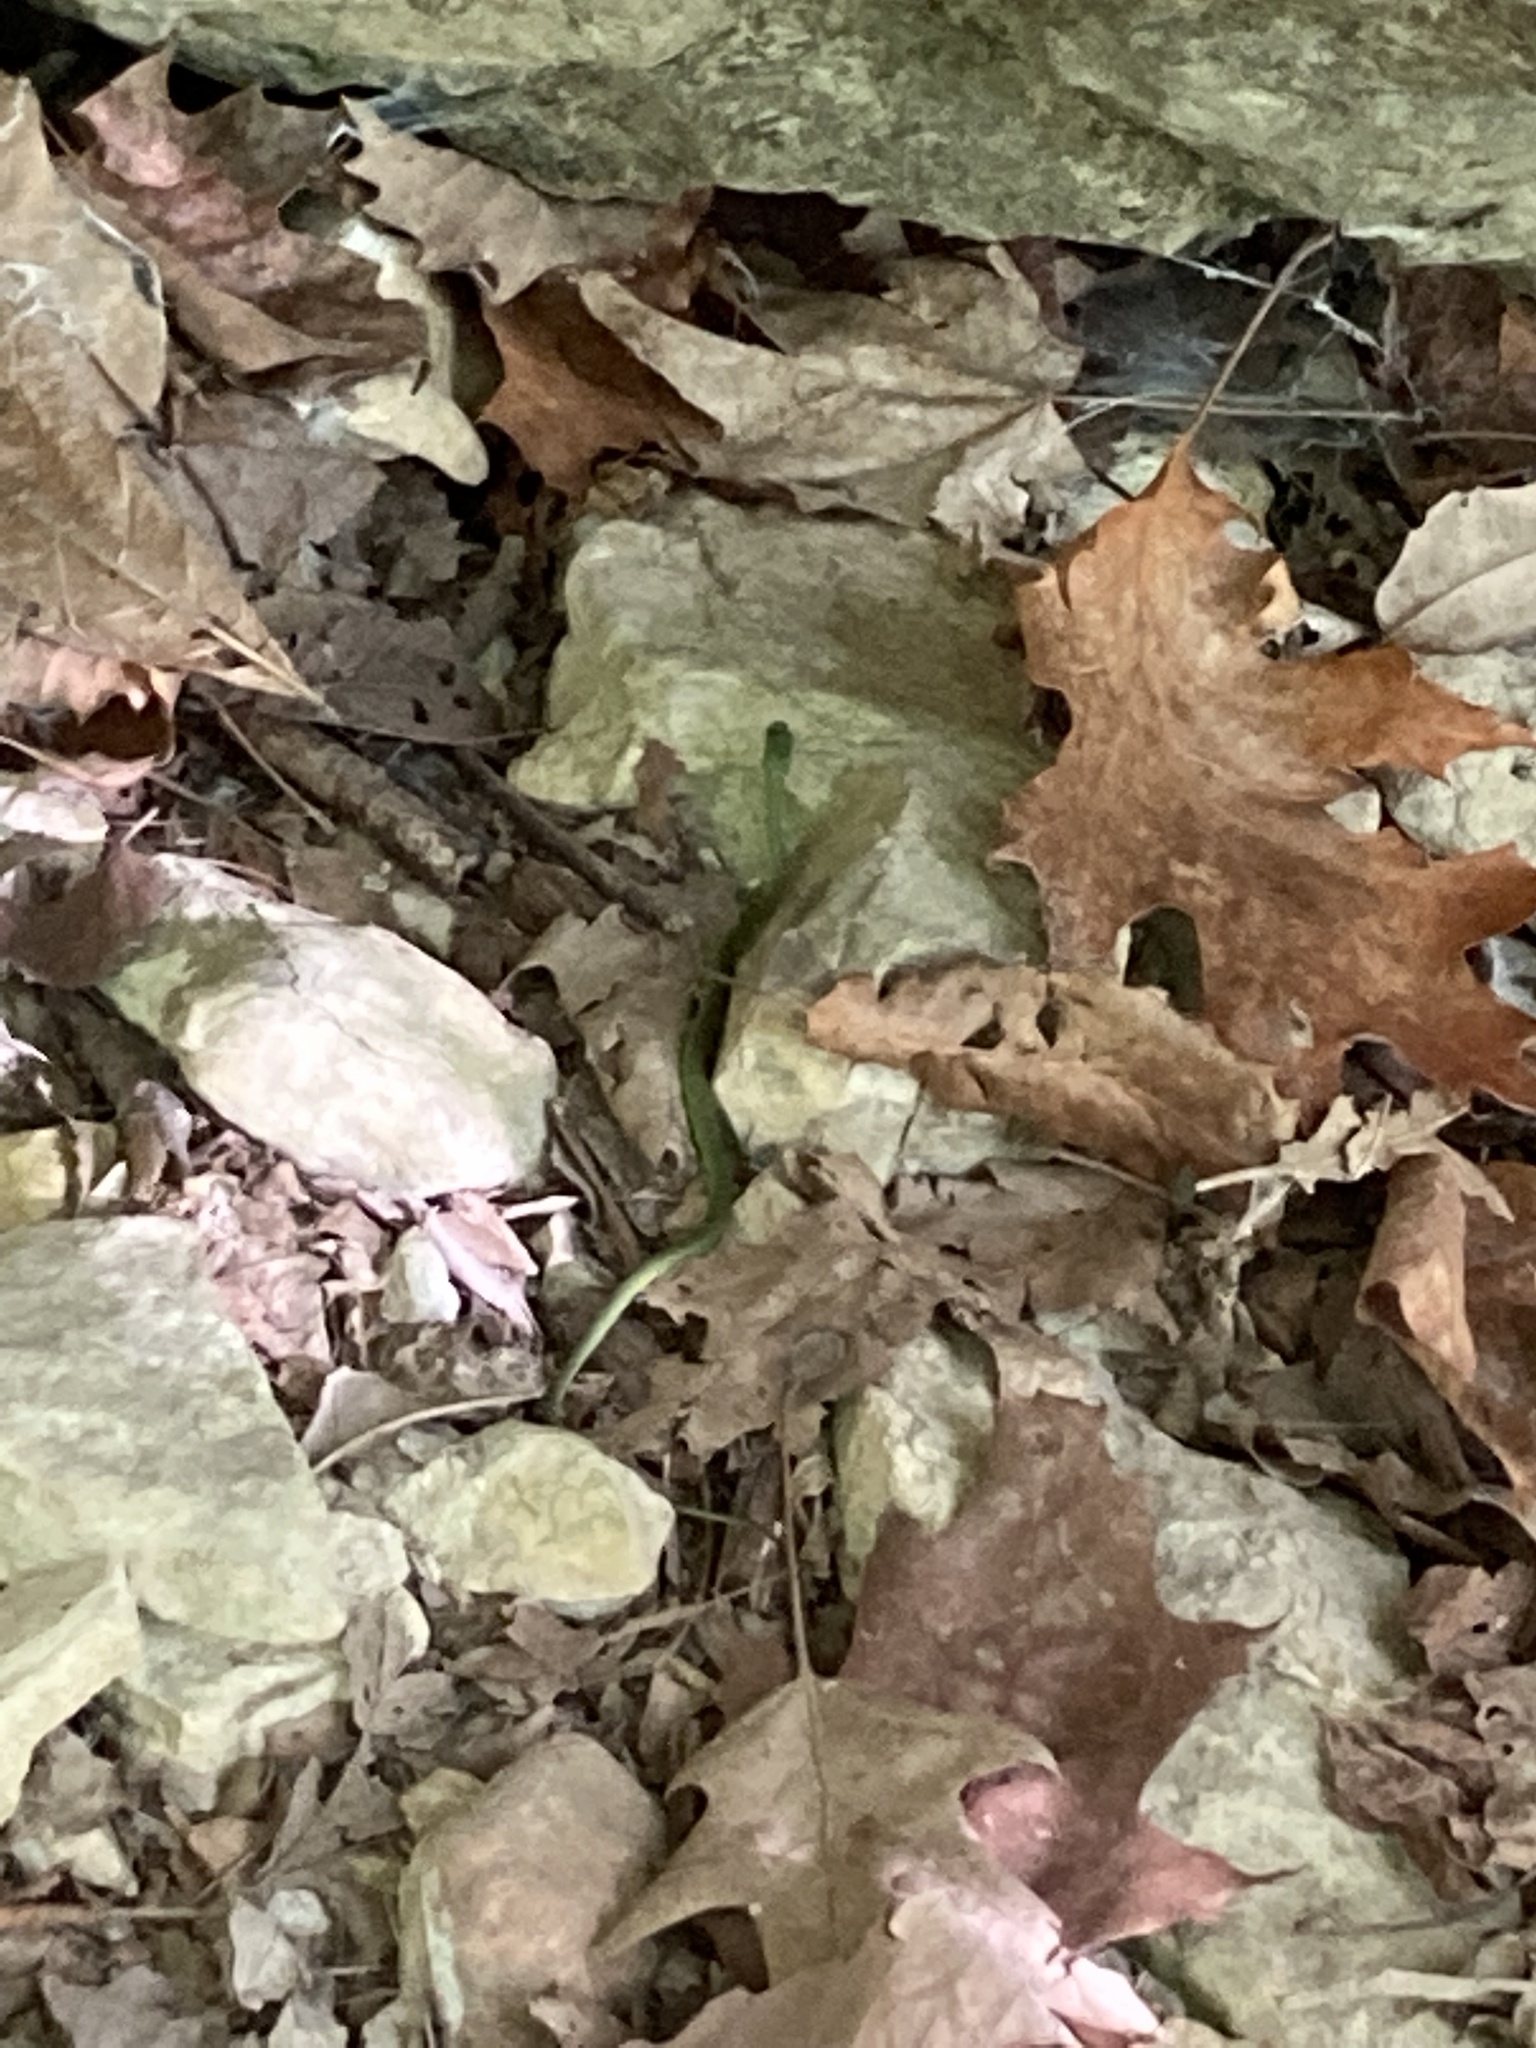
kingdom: Animalia
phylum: Chordata
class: Squamata
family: Colubridae
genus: Opheodrys
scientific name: Opheodrys aestivus
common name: Rough greensnake
